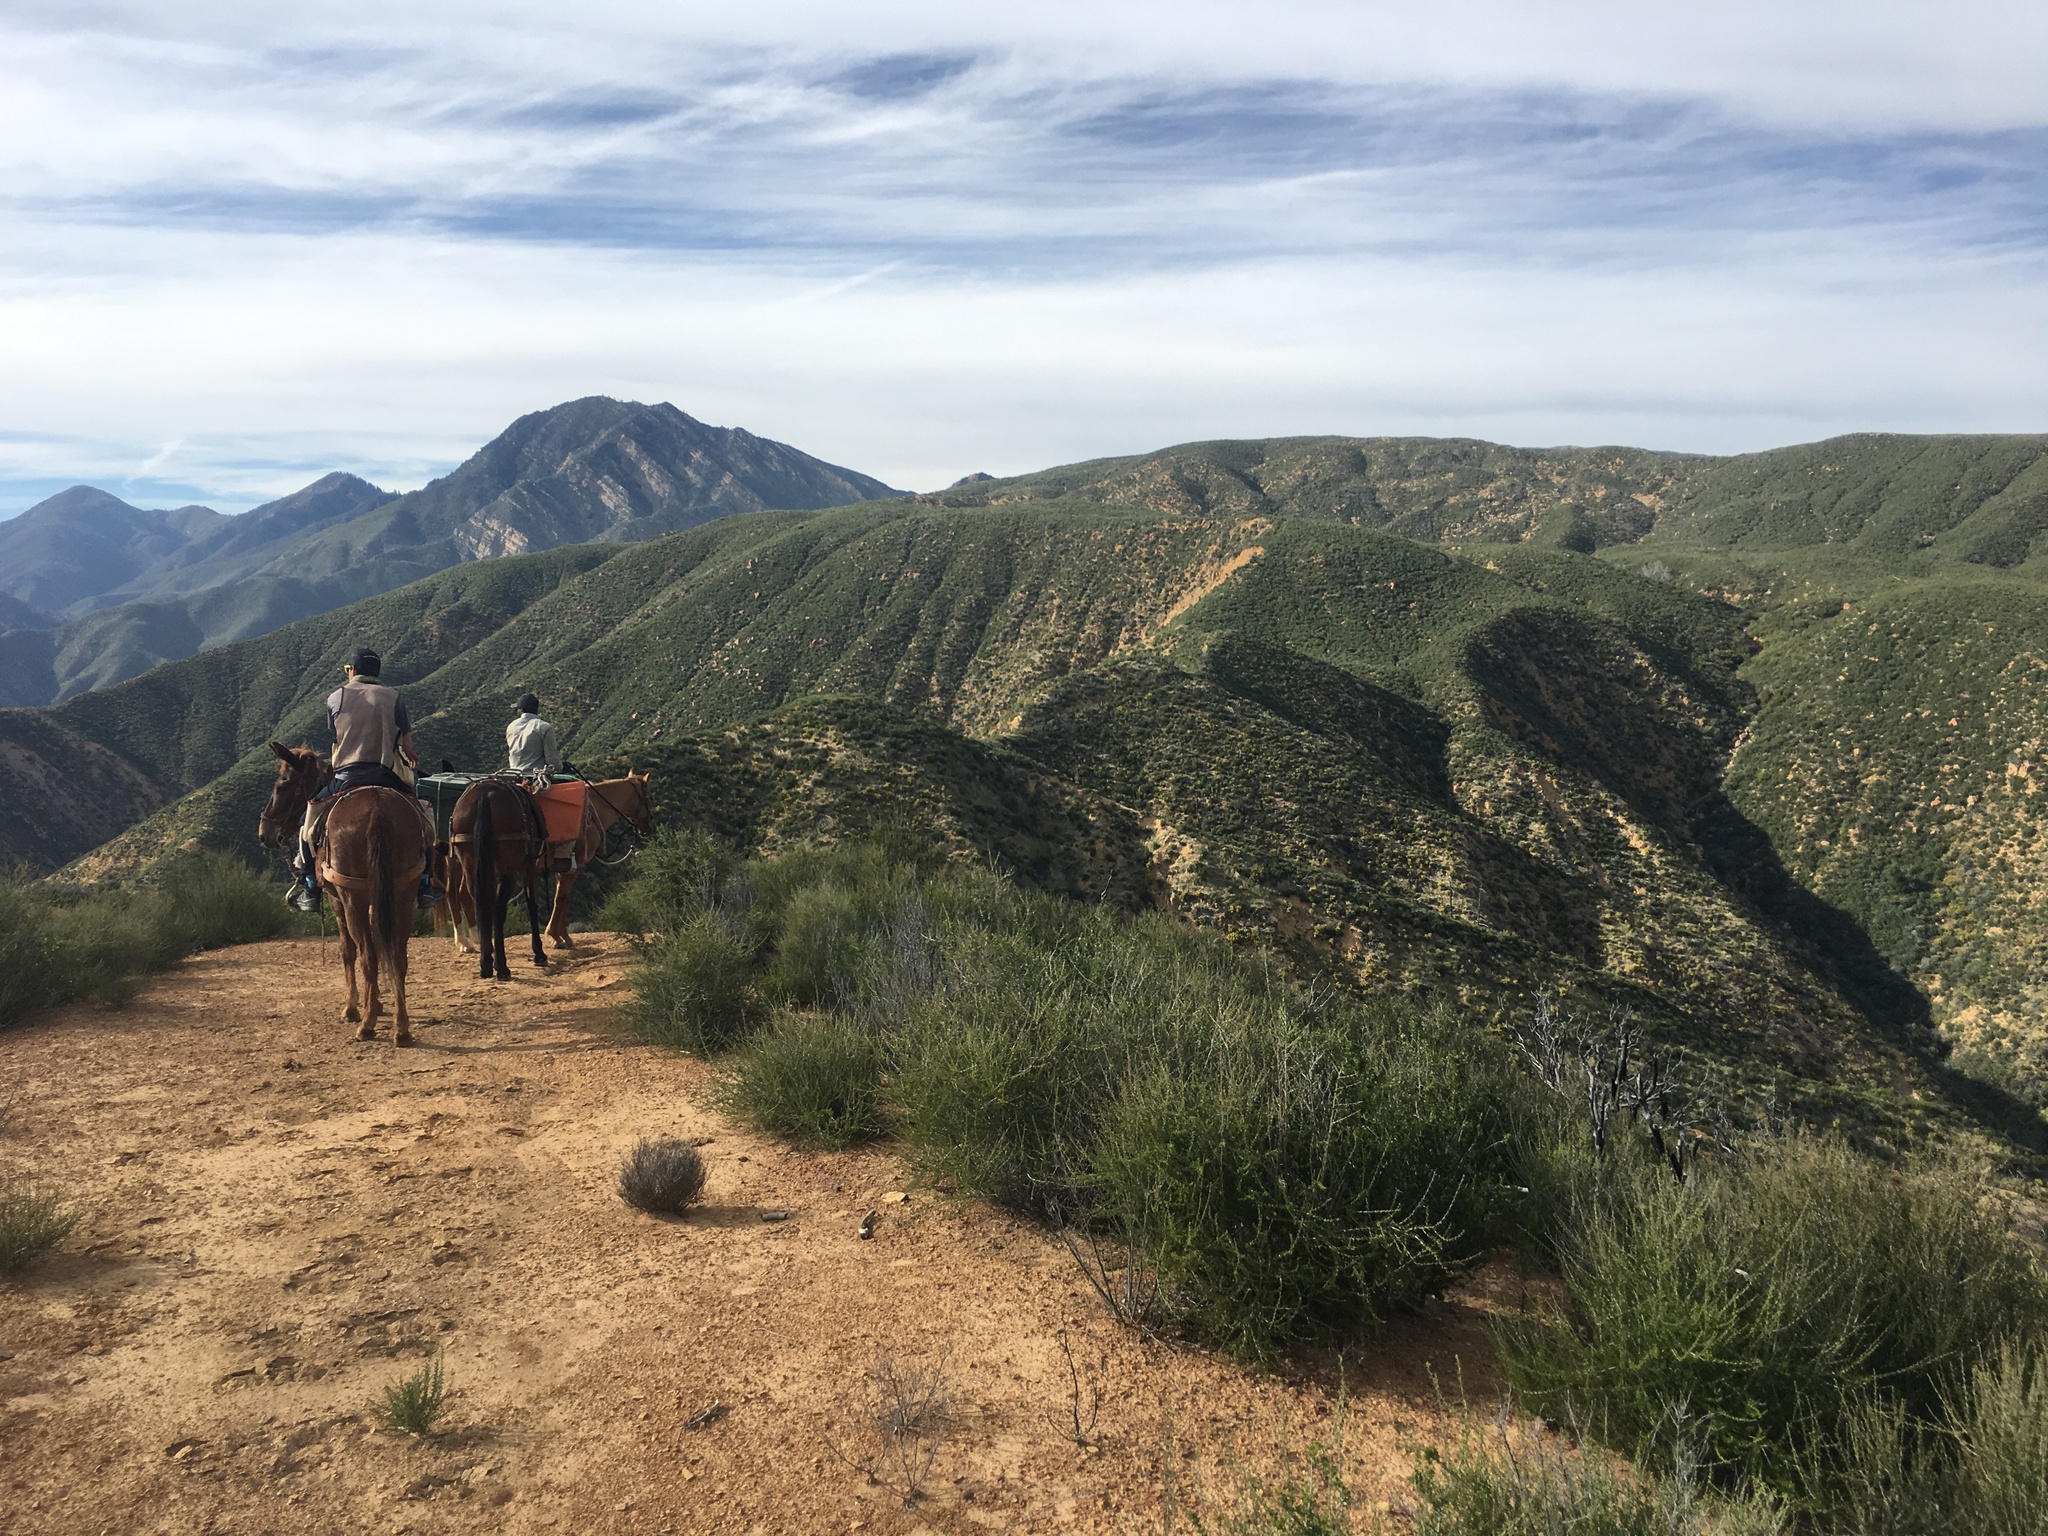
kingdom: Plantae
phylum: Tracheophyta
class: Magnoliopsida
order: Rosales
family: Rosaceae
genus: Adenostoma
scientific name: Adenostoma fasciculatum
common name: Chamise
